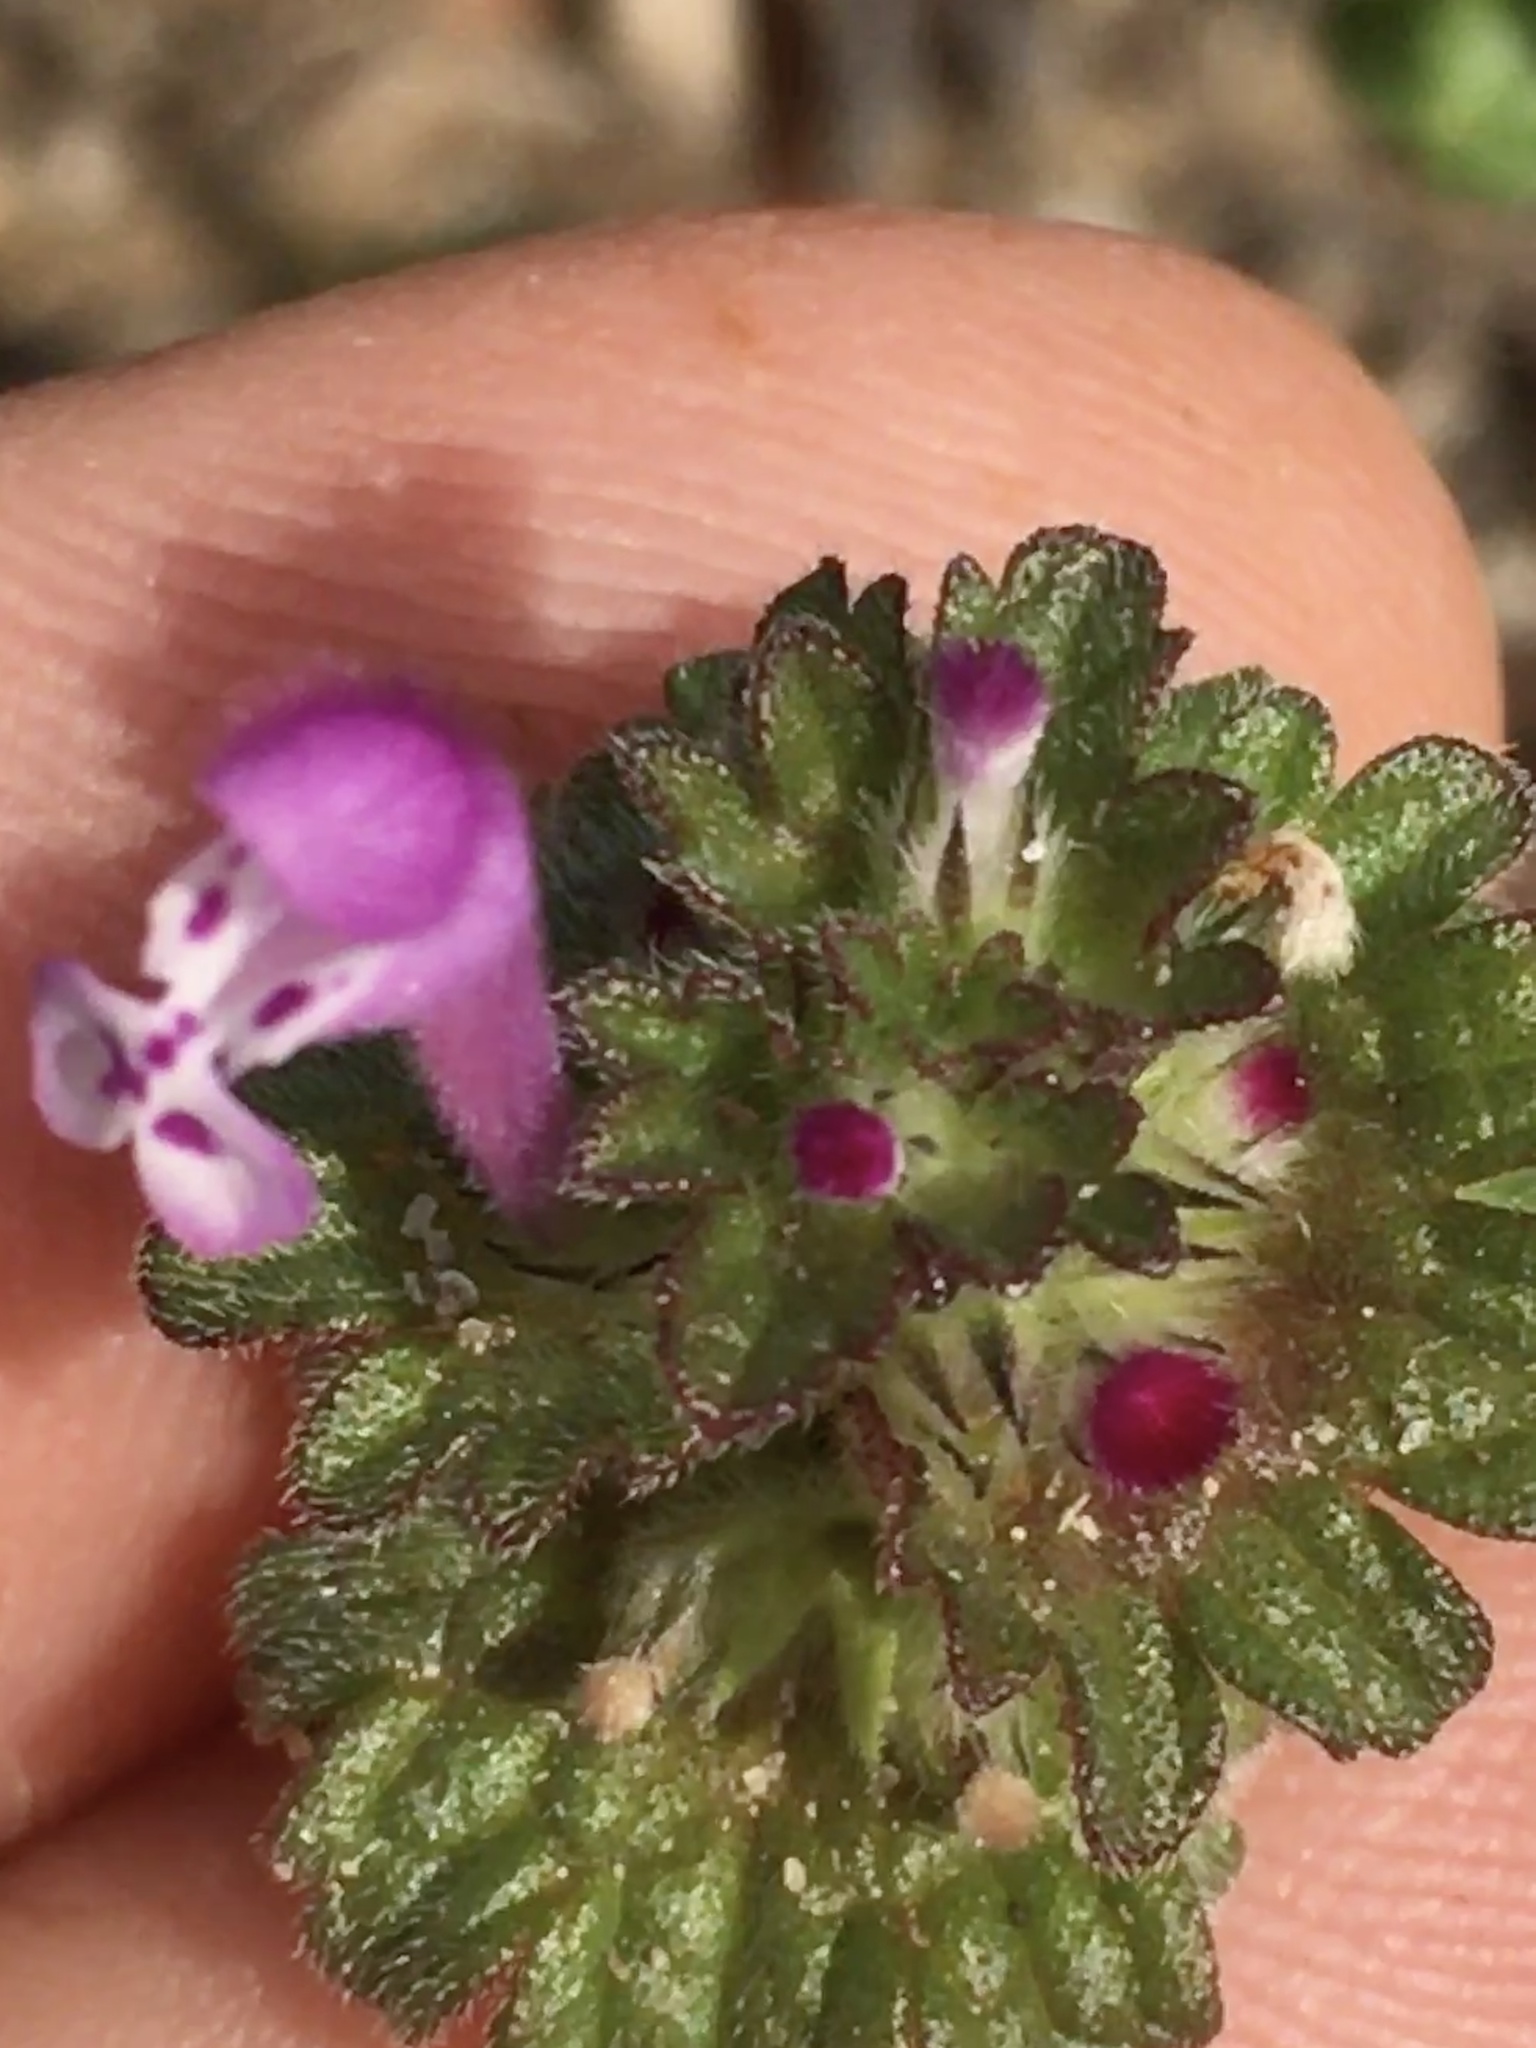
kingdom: Plantae
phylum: Tracheophyta
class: Magnoliopsida
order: Lamiales
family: Lamiaceae
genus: Lamium
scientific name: Lamium amplexicaule
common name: Henbit dead-nettle
